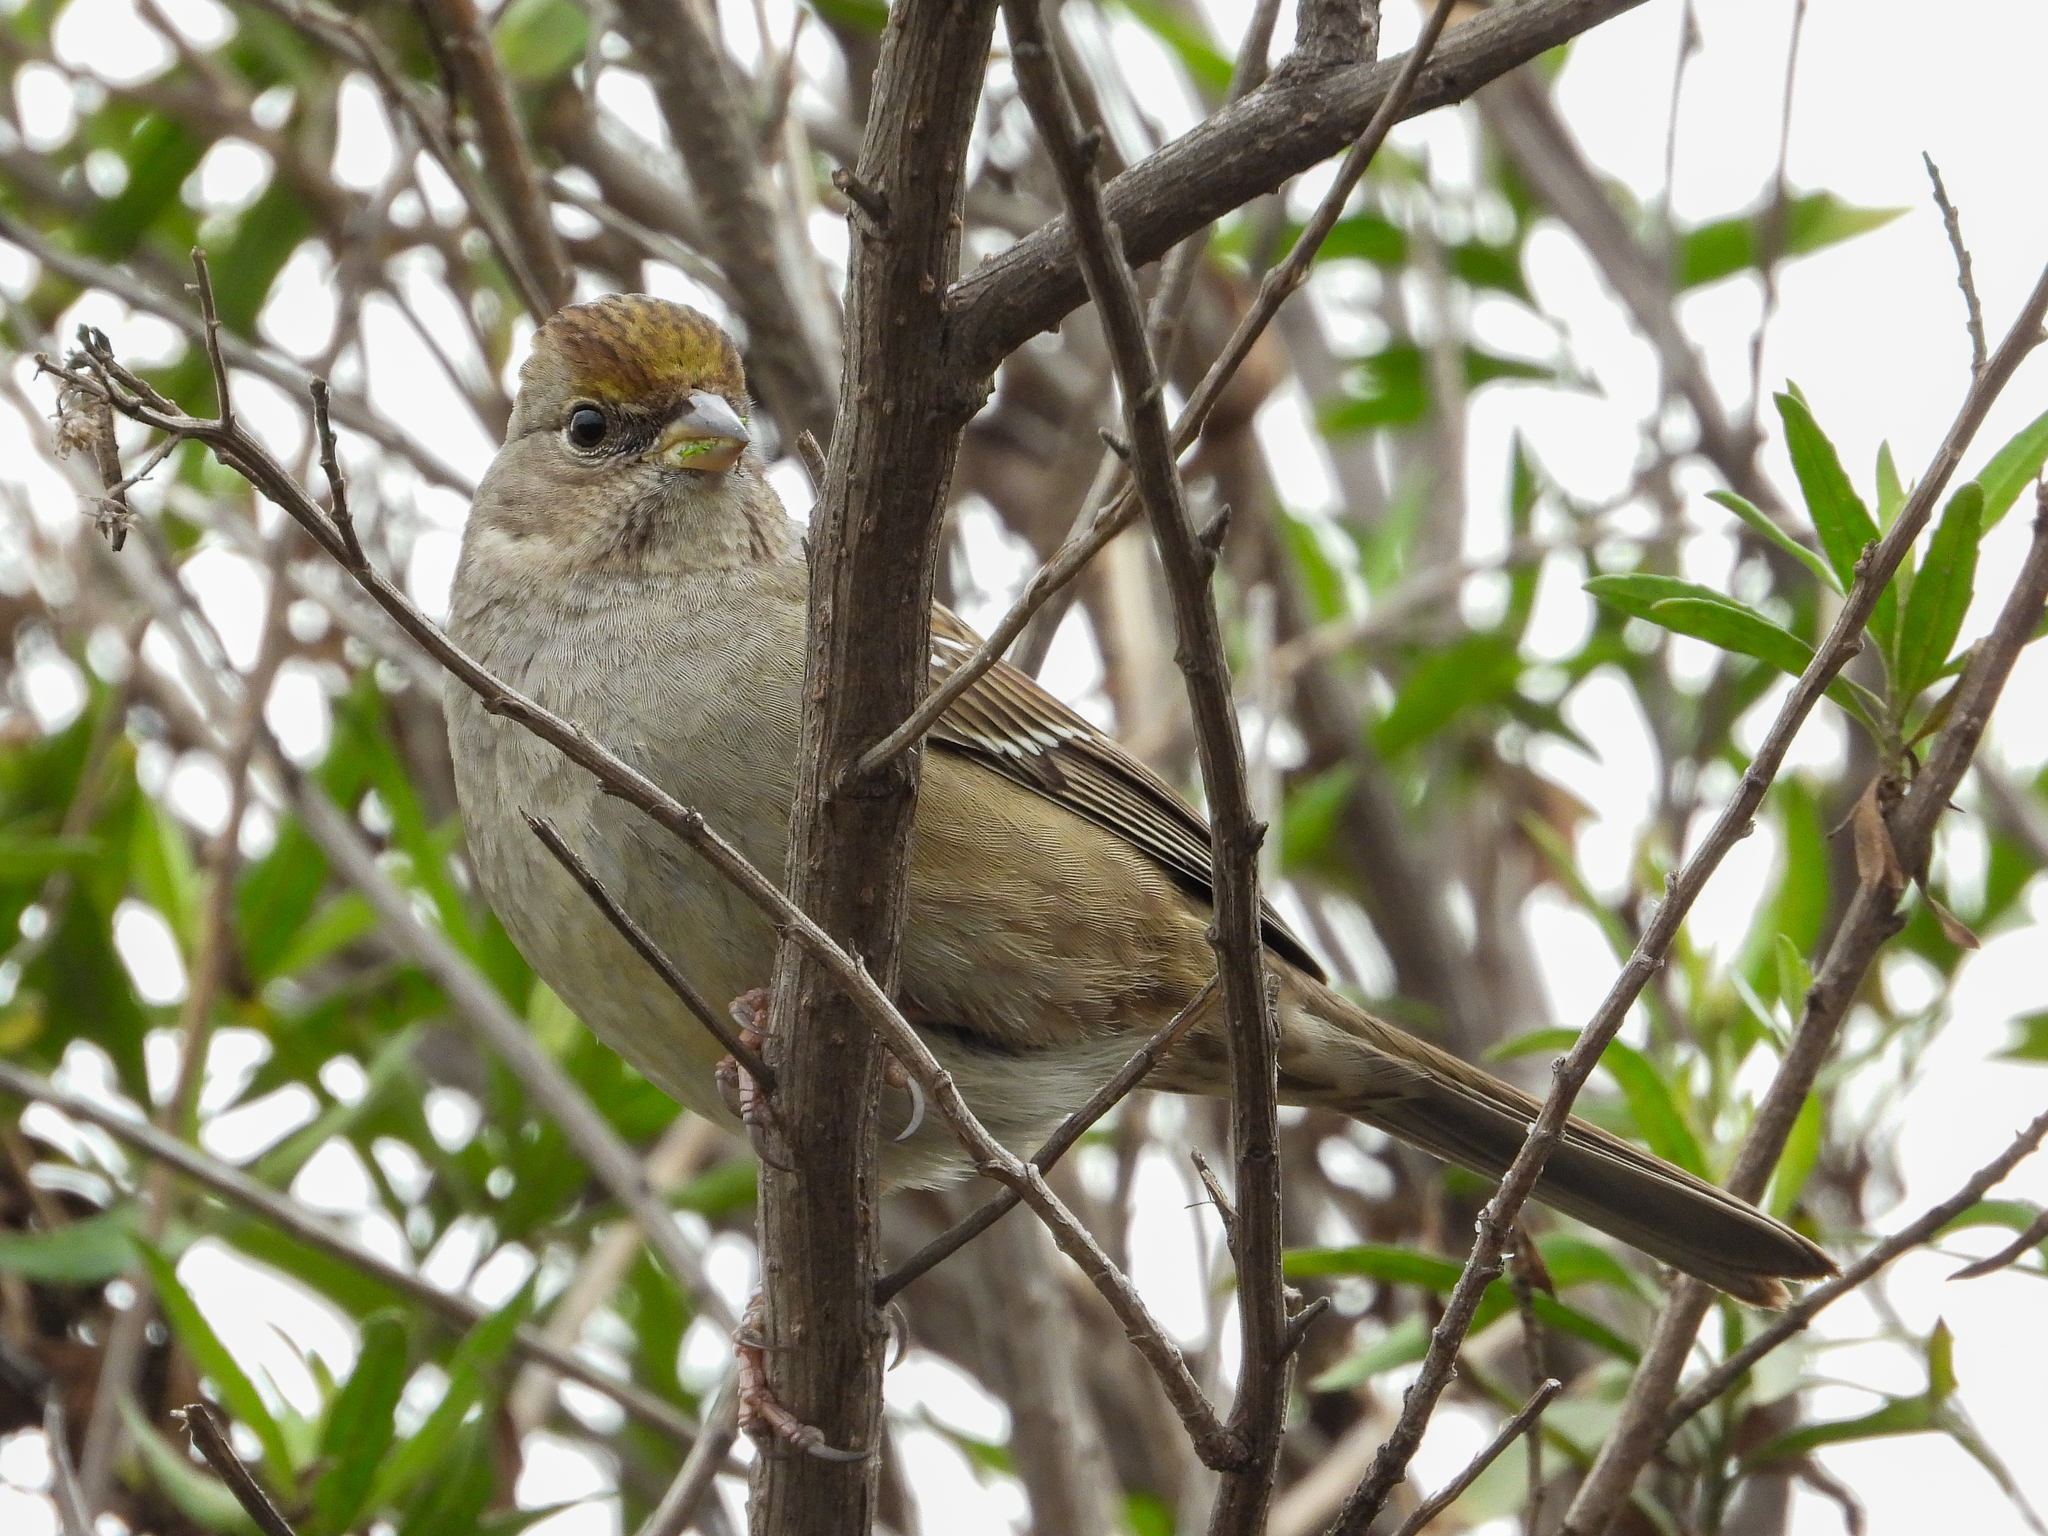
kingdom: Animalia
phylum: Chordata
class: Aves
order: Passeriformes
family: Passerellidae
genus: Zonotrichia
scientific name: Zonotrichia atricapilla
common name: Golden-crowned sparrow
